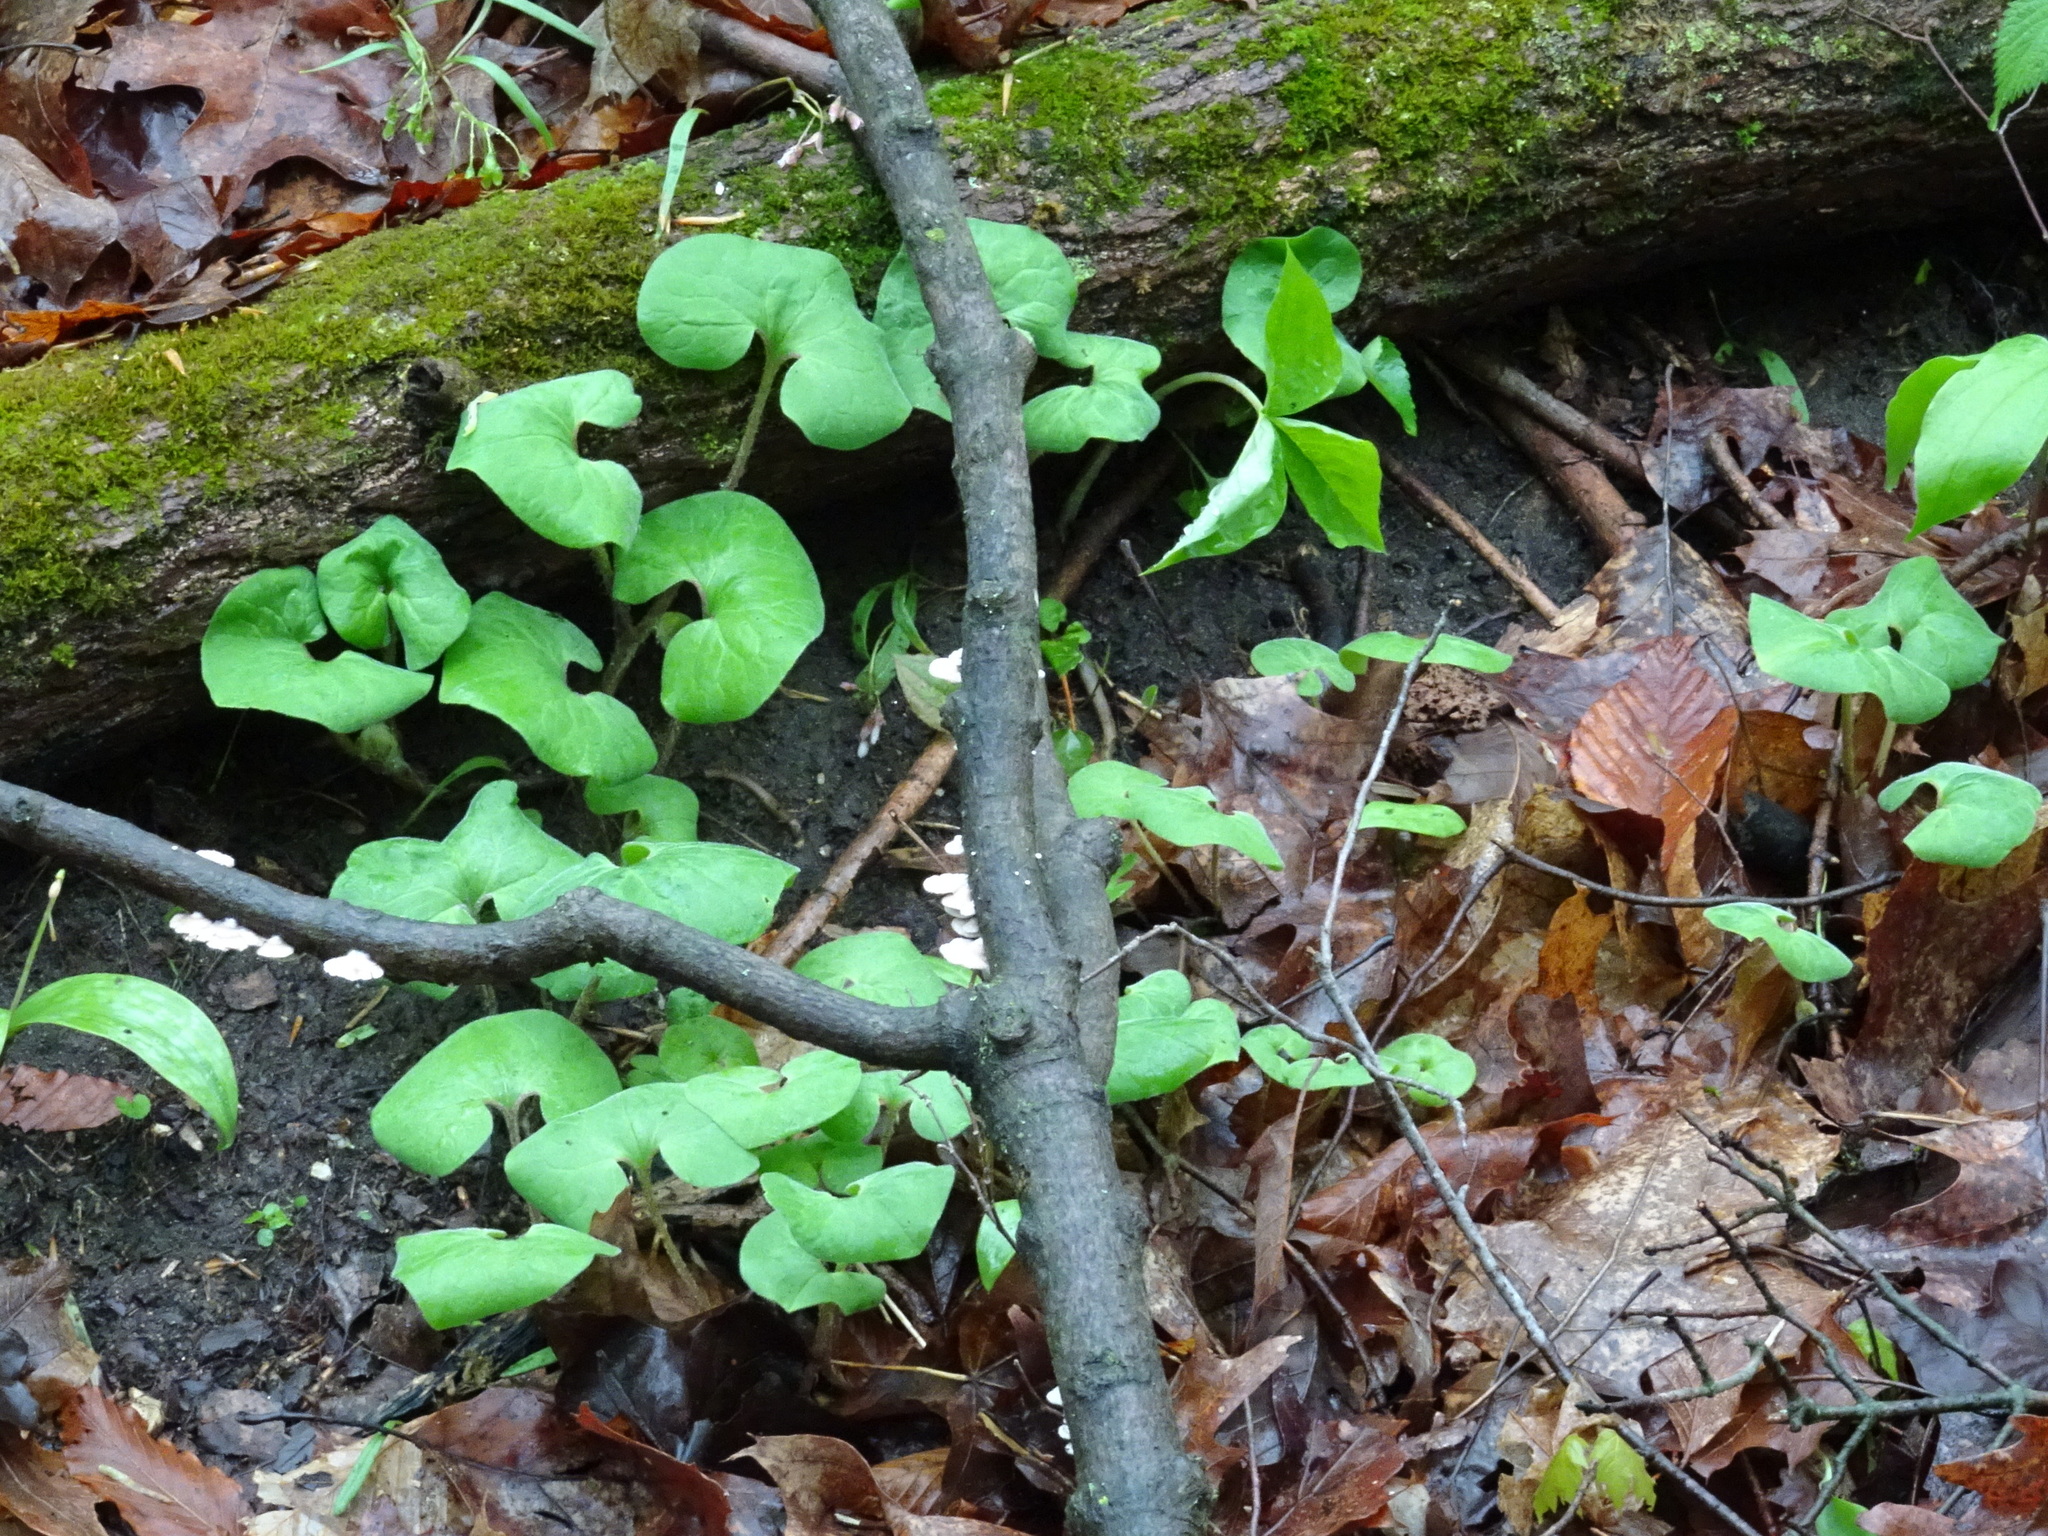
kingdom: Plantae
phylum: Tracheophyta
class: Magnoliopsida
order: Piperales
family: Aristolochiaceae
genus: Asarum
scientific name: Asarum canadense
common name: Wild ginger
